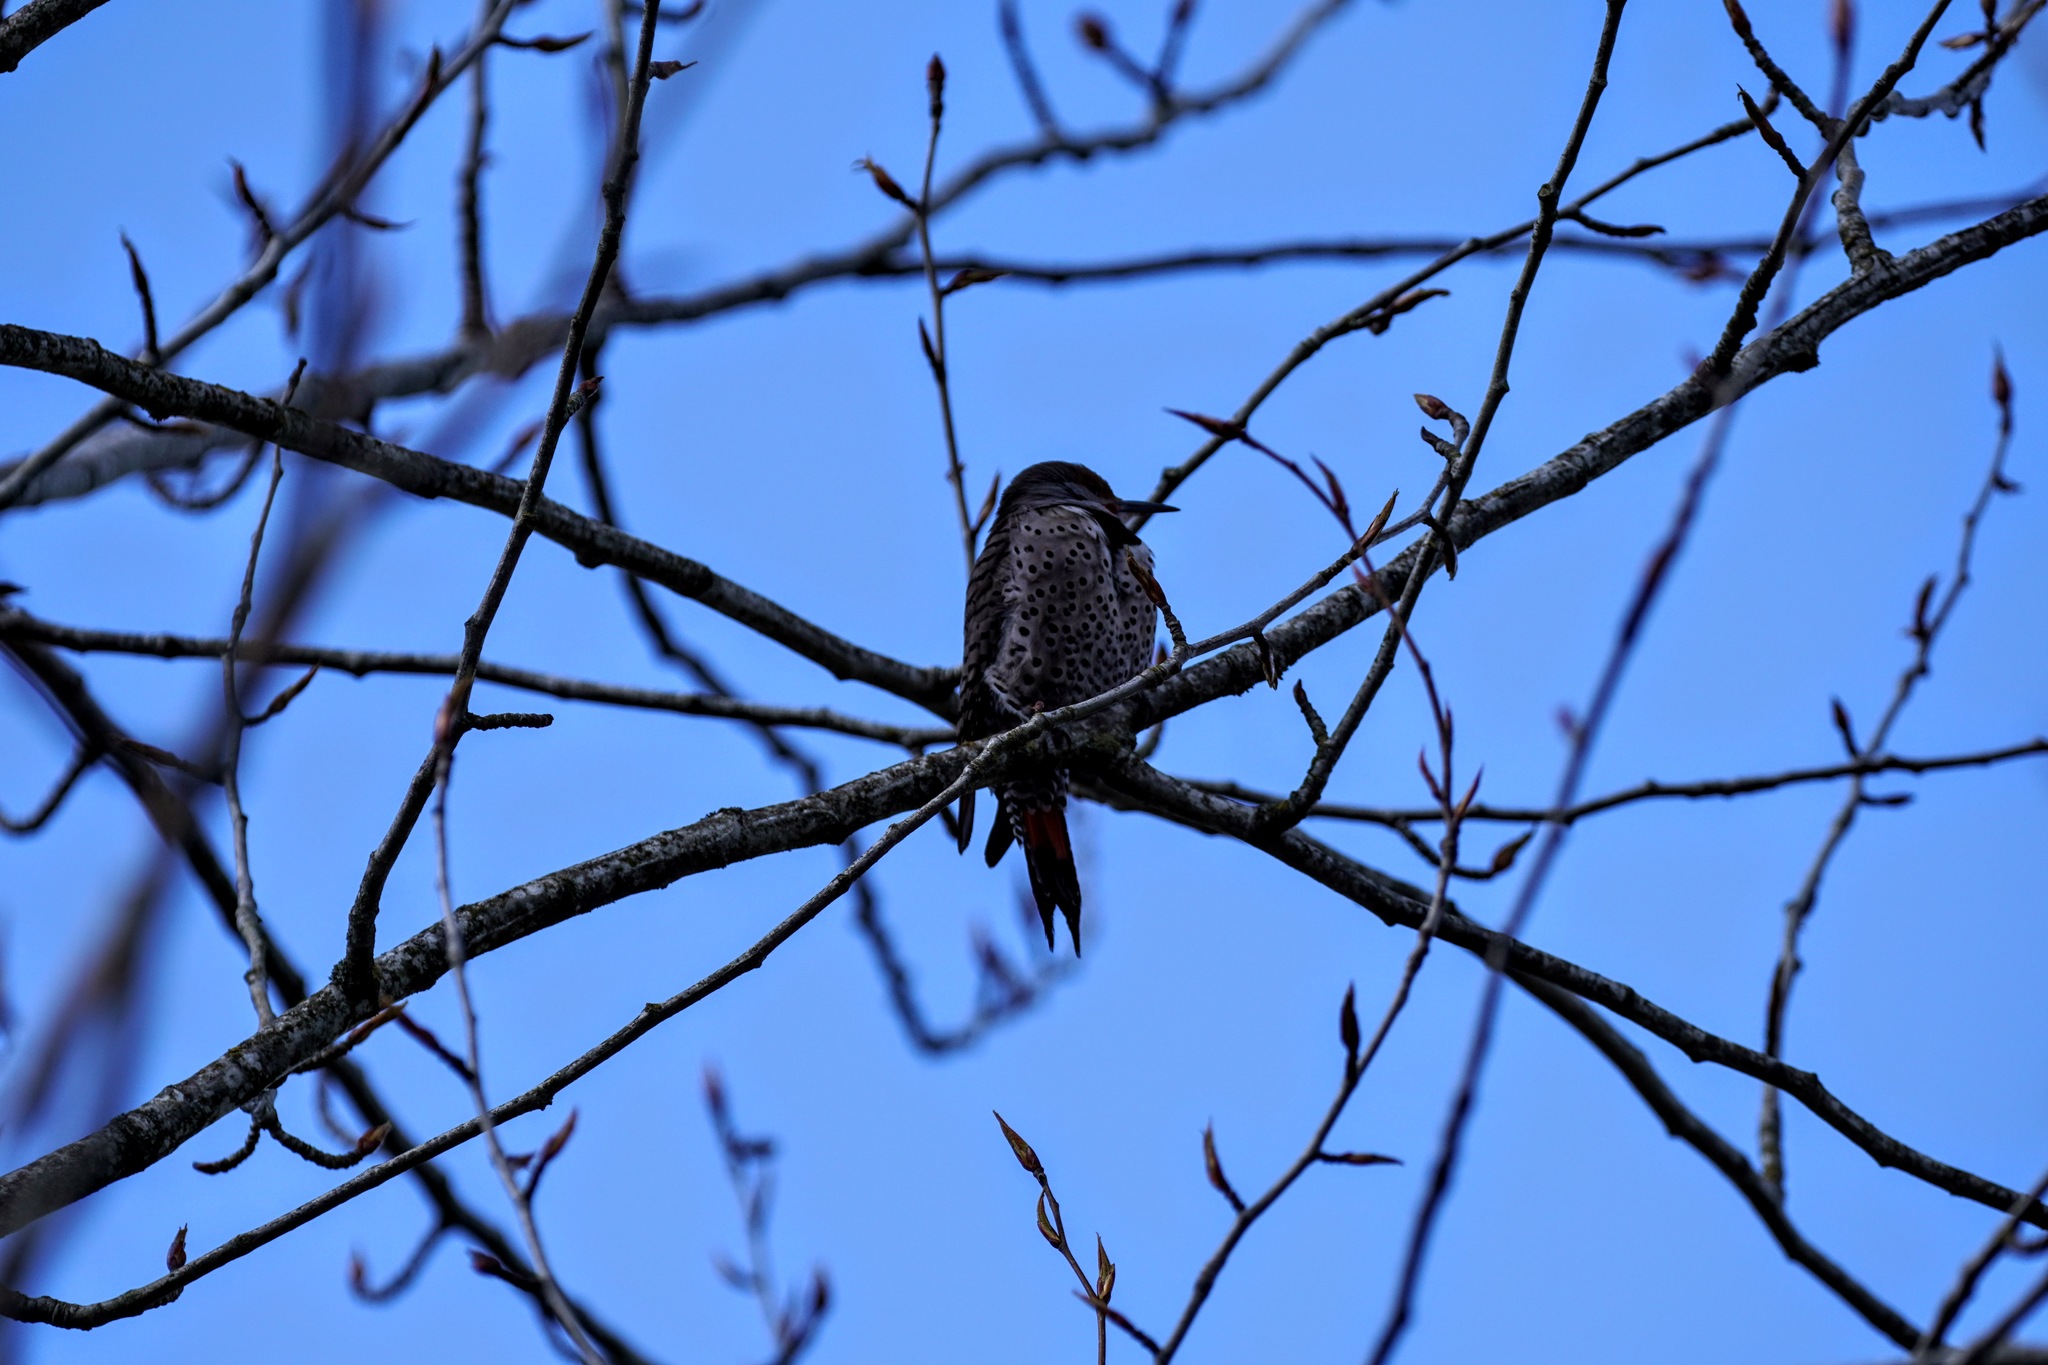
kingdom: Animalia
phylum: Chordata
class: Aves
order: Piciformes
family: Picidae
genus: Colaptes
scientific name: Colaptes auratus
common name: Northern flicker
